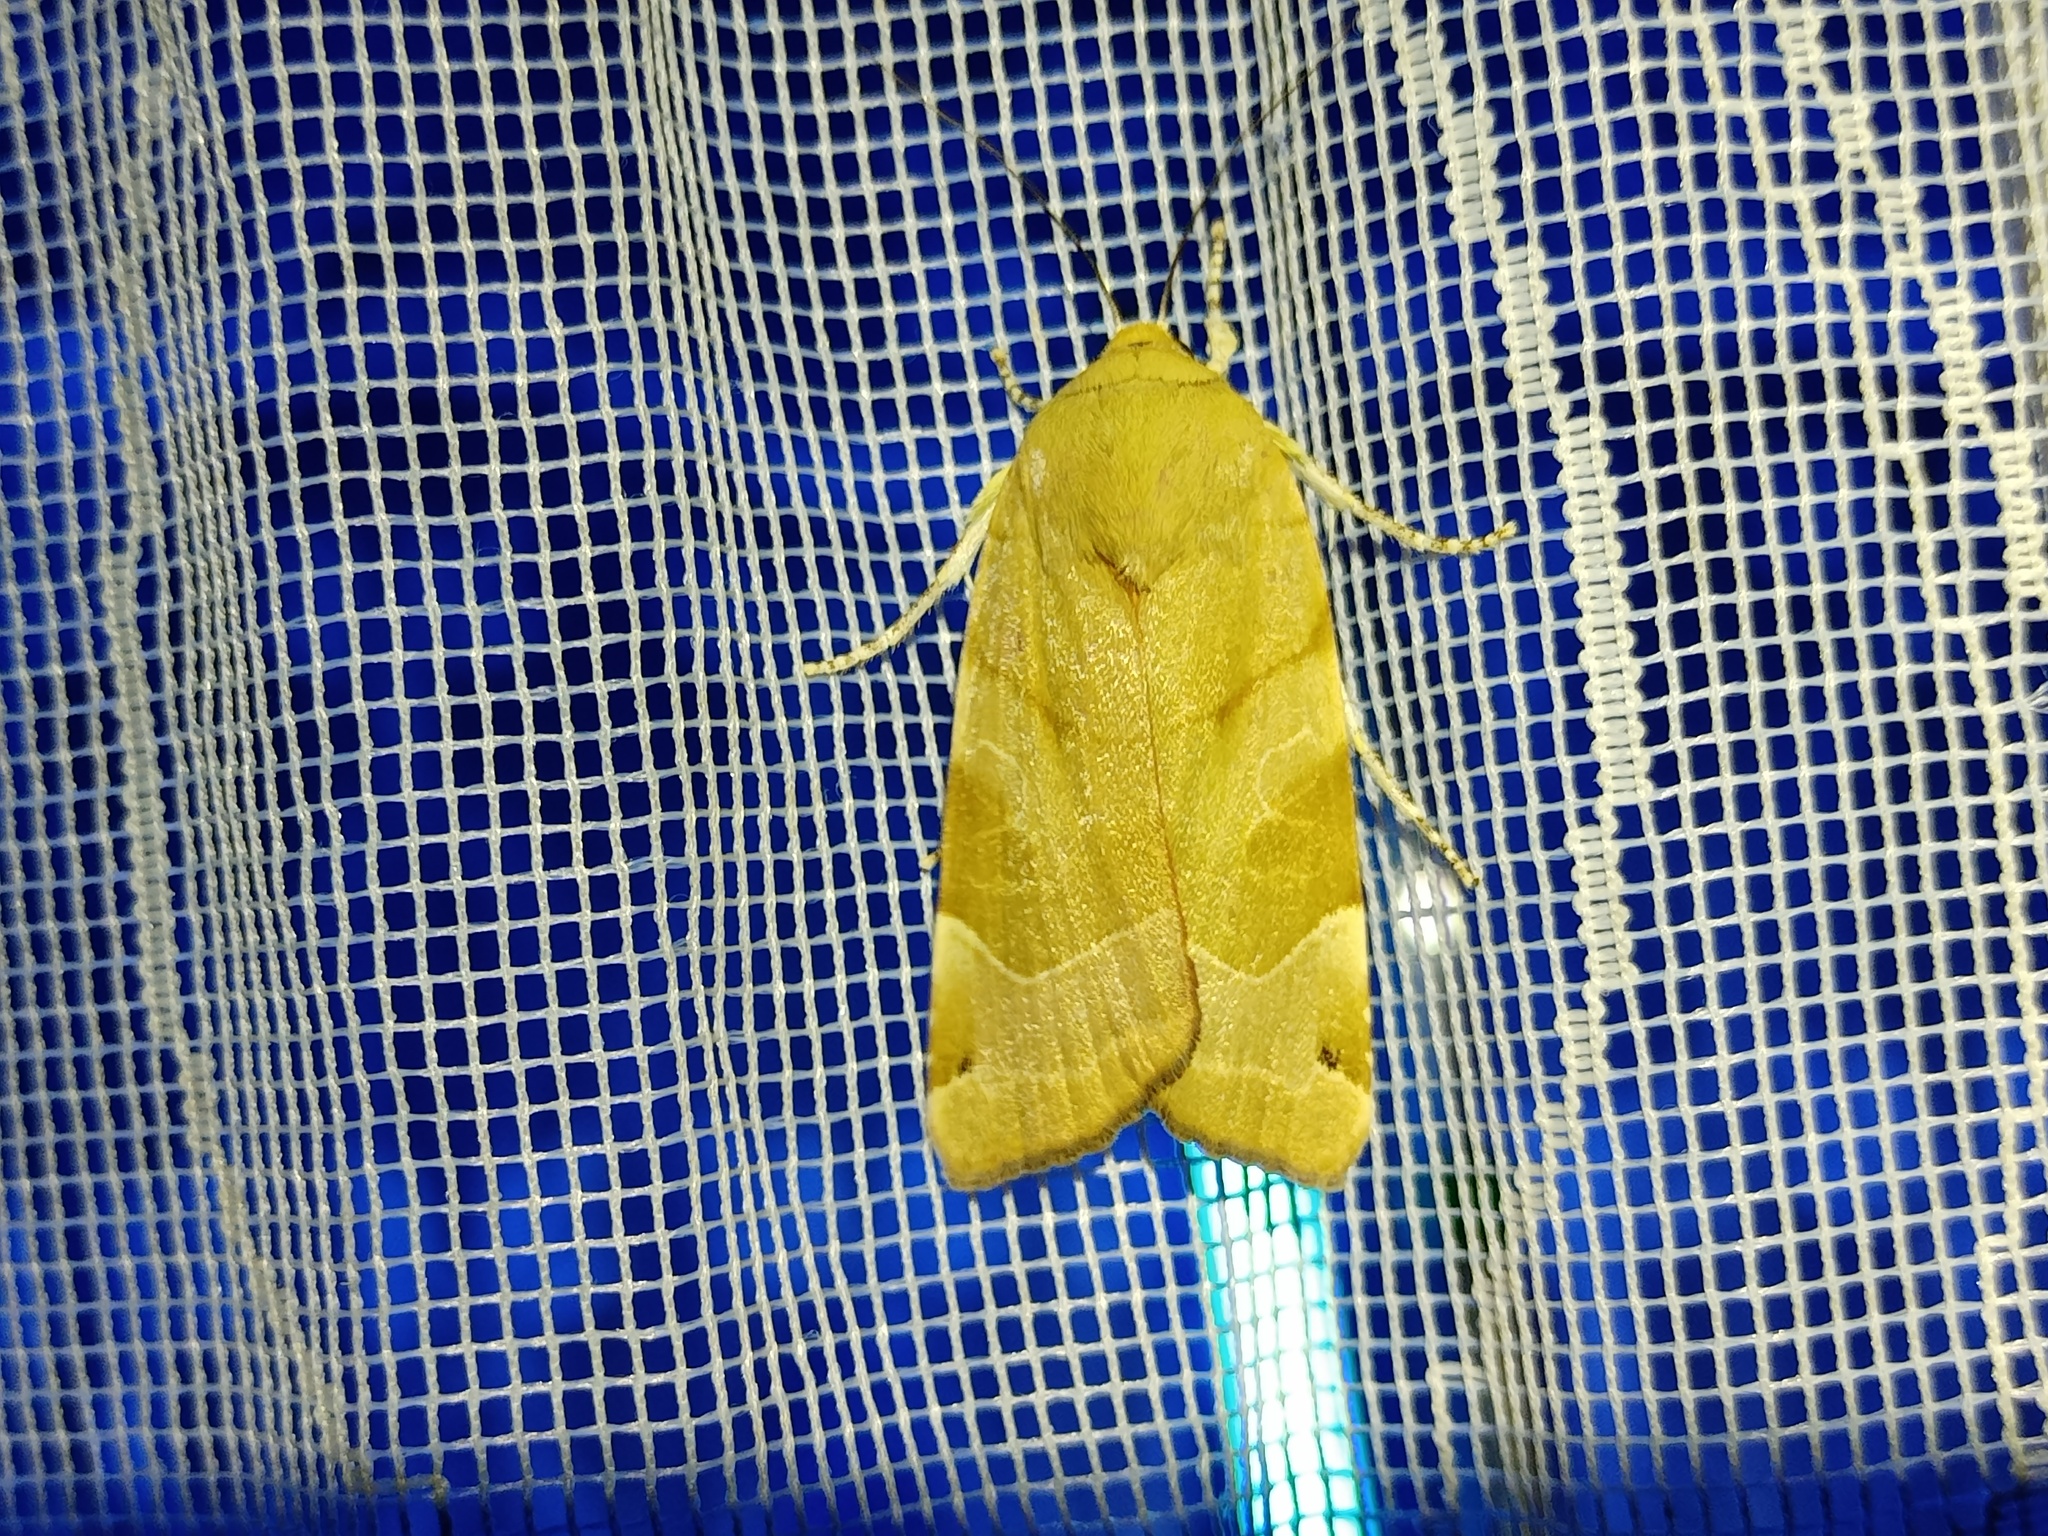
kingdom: Animalia
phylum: Arthropoda
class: Insecta
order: Lepidoptera
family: Noctuidae
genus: Noctua
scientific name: Noctua fimbriata
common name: Broad-bordered yellow underwing
